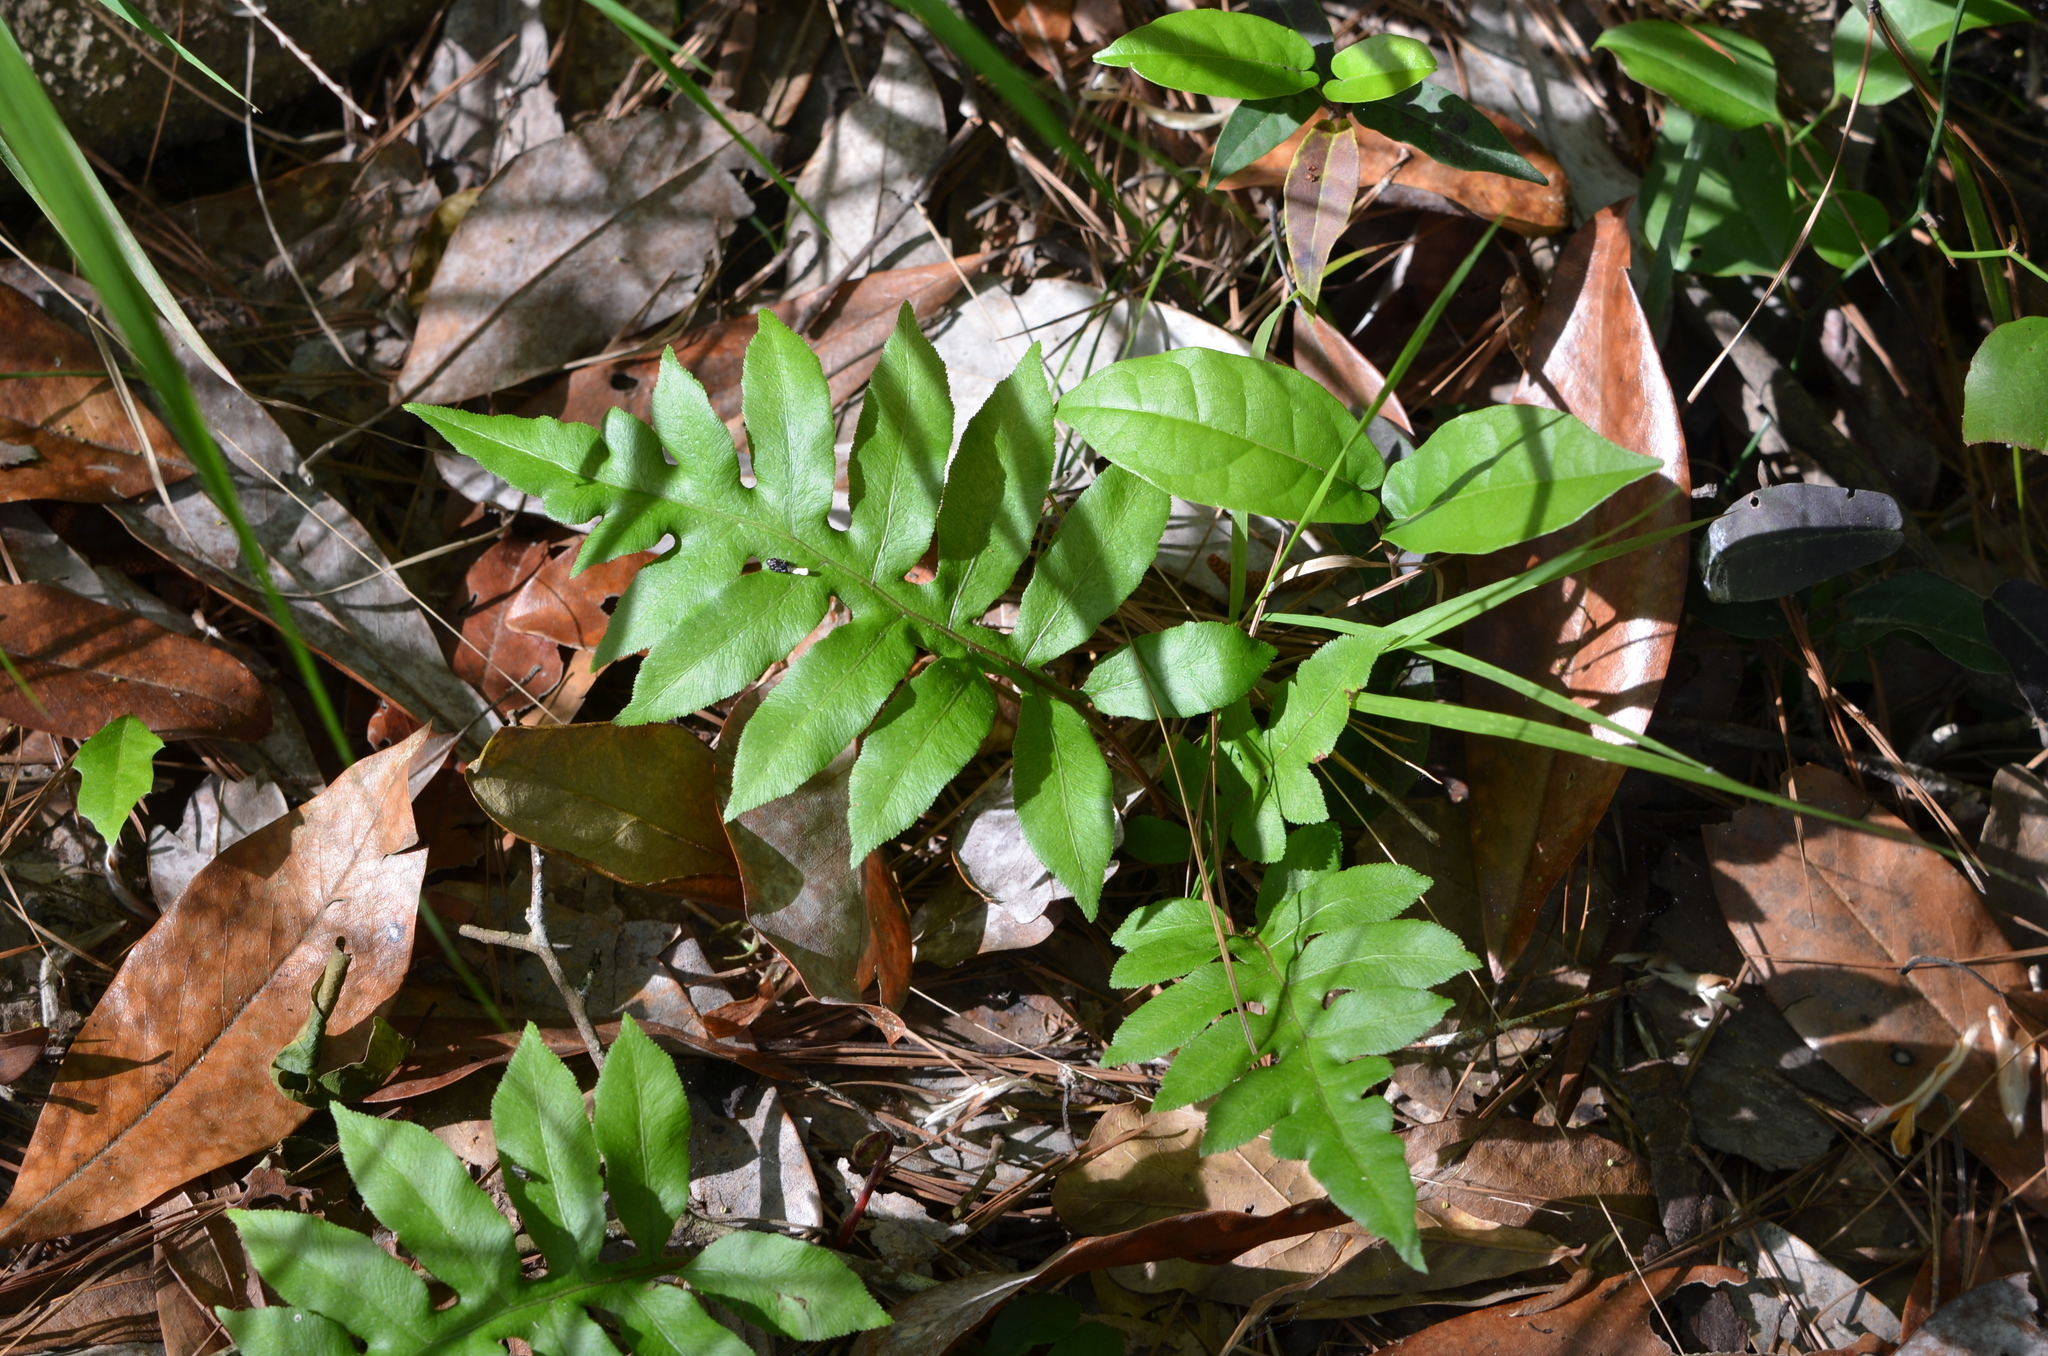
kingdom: Plantae
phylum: Tracheophyta
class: Polypodiopsida
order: Polypodiales
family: Blechnaceae
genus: Lorinseria
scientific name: Lorinseria areolata
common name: Dwarf chain fern
